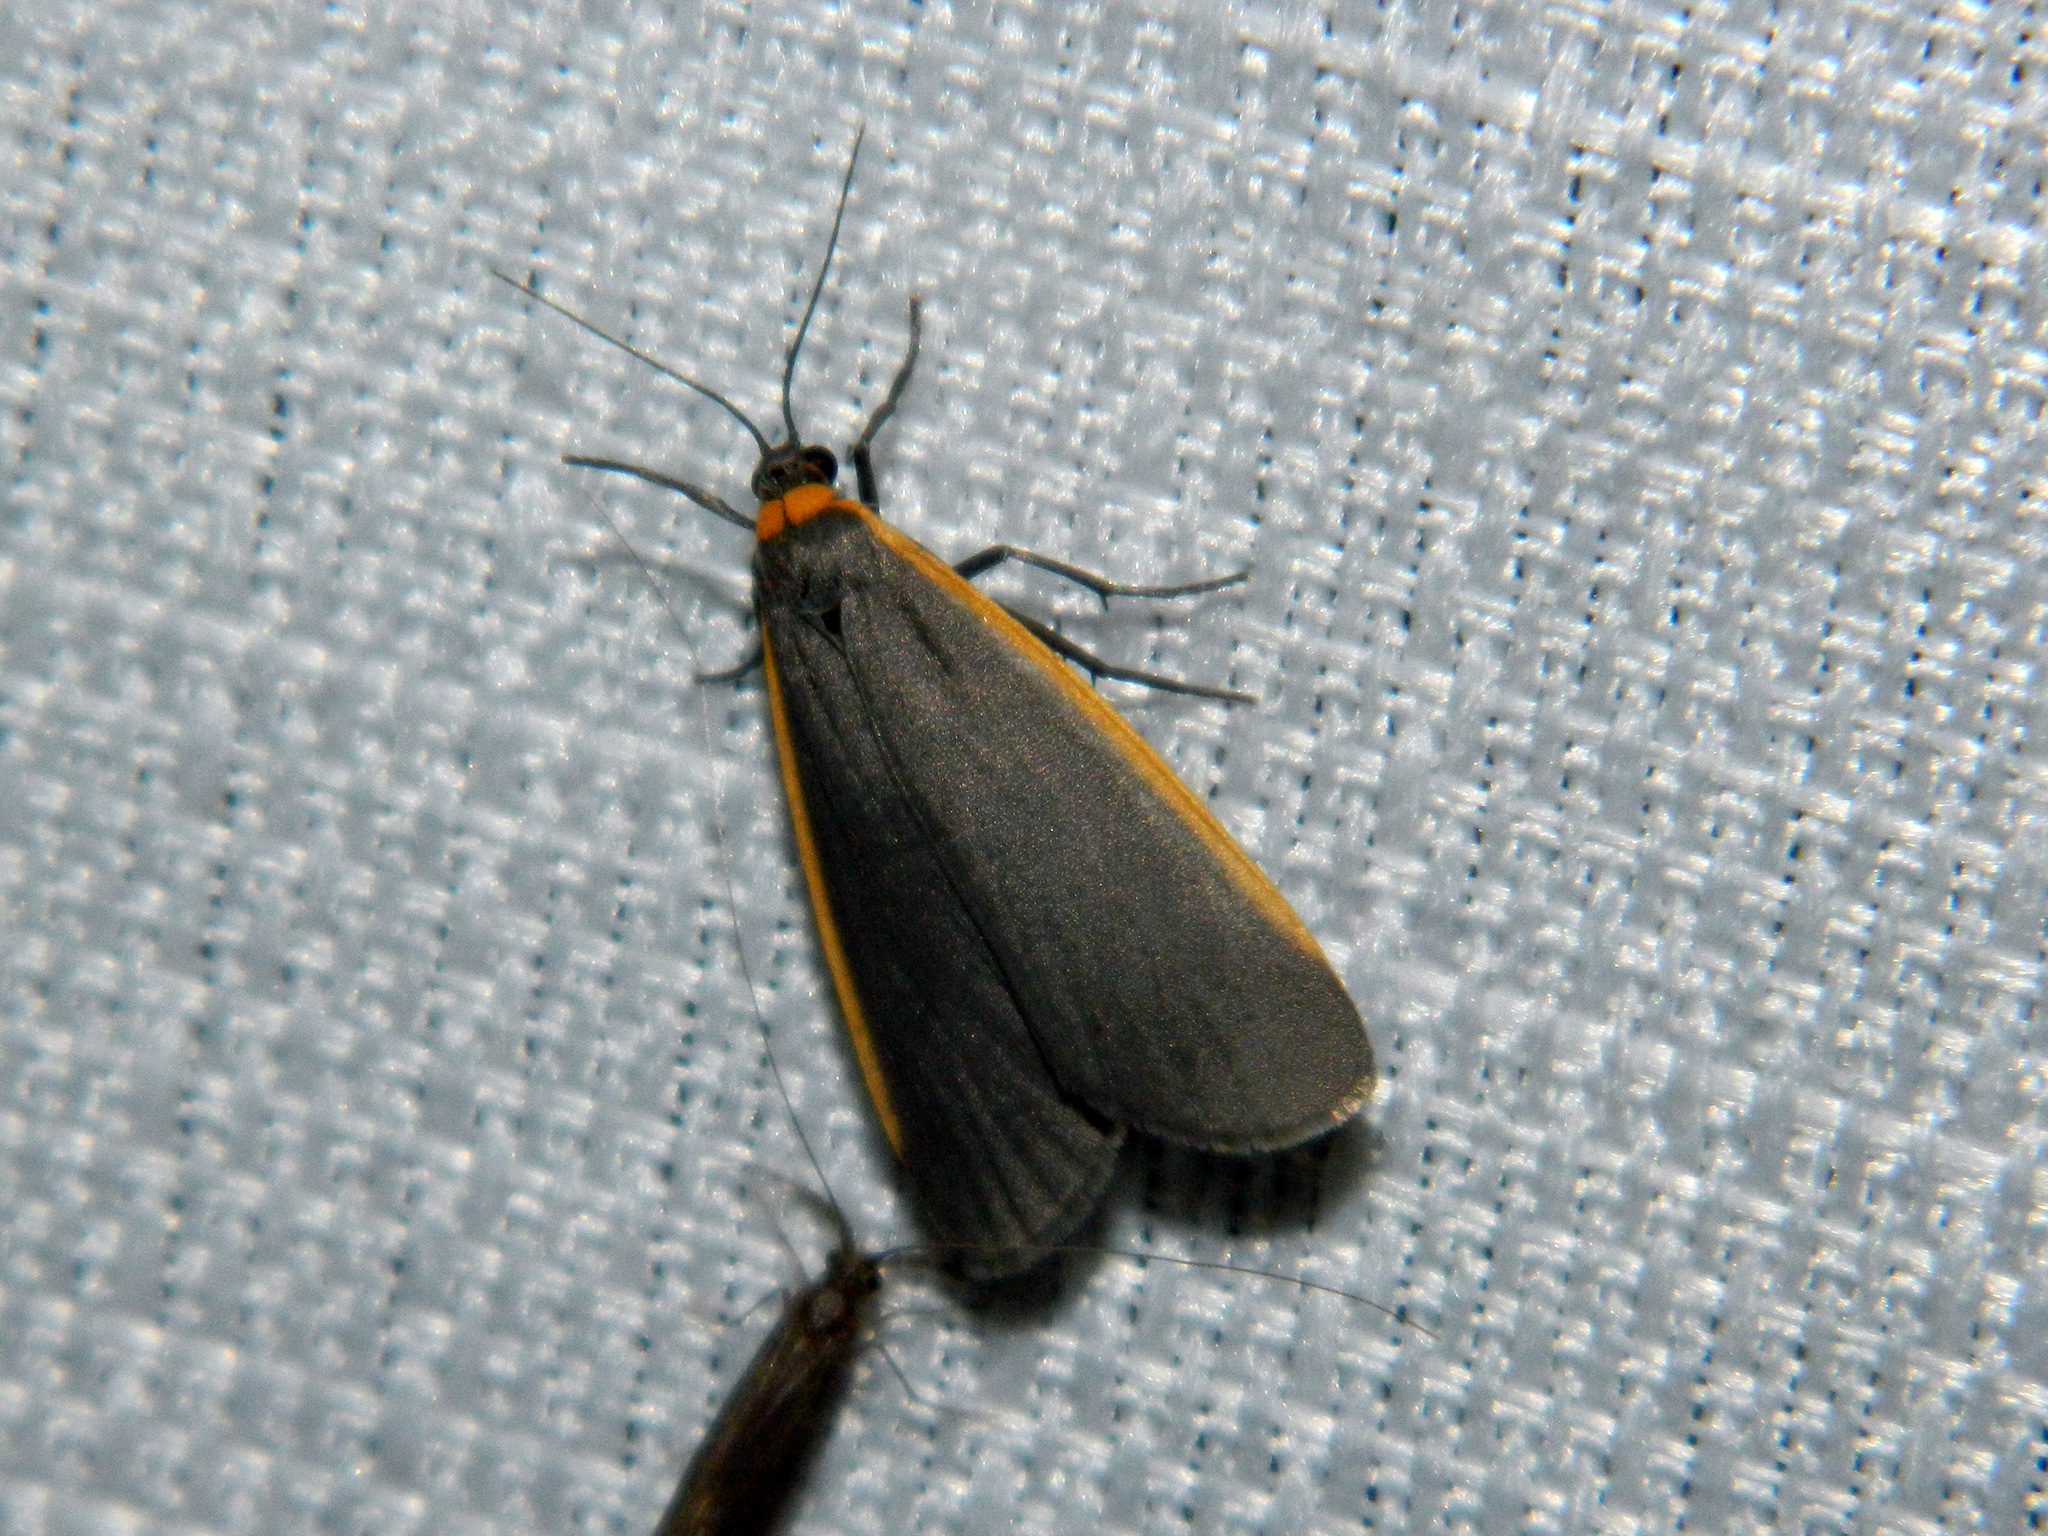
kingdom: Animalia
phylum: Arthropoda
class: Insecta
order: Lepidoptera
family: Erebidae
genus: Manulea
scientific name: Manulea bicolor
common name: Bicolored moth
